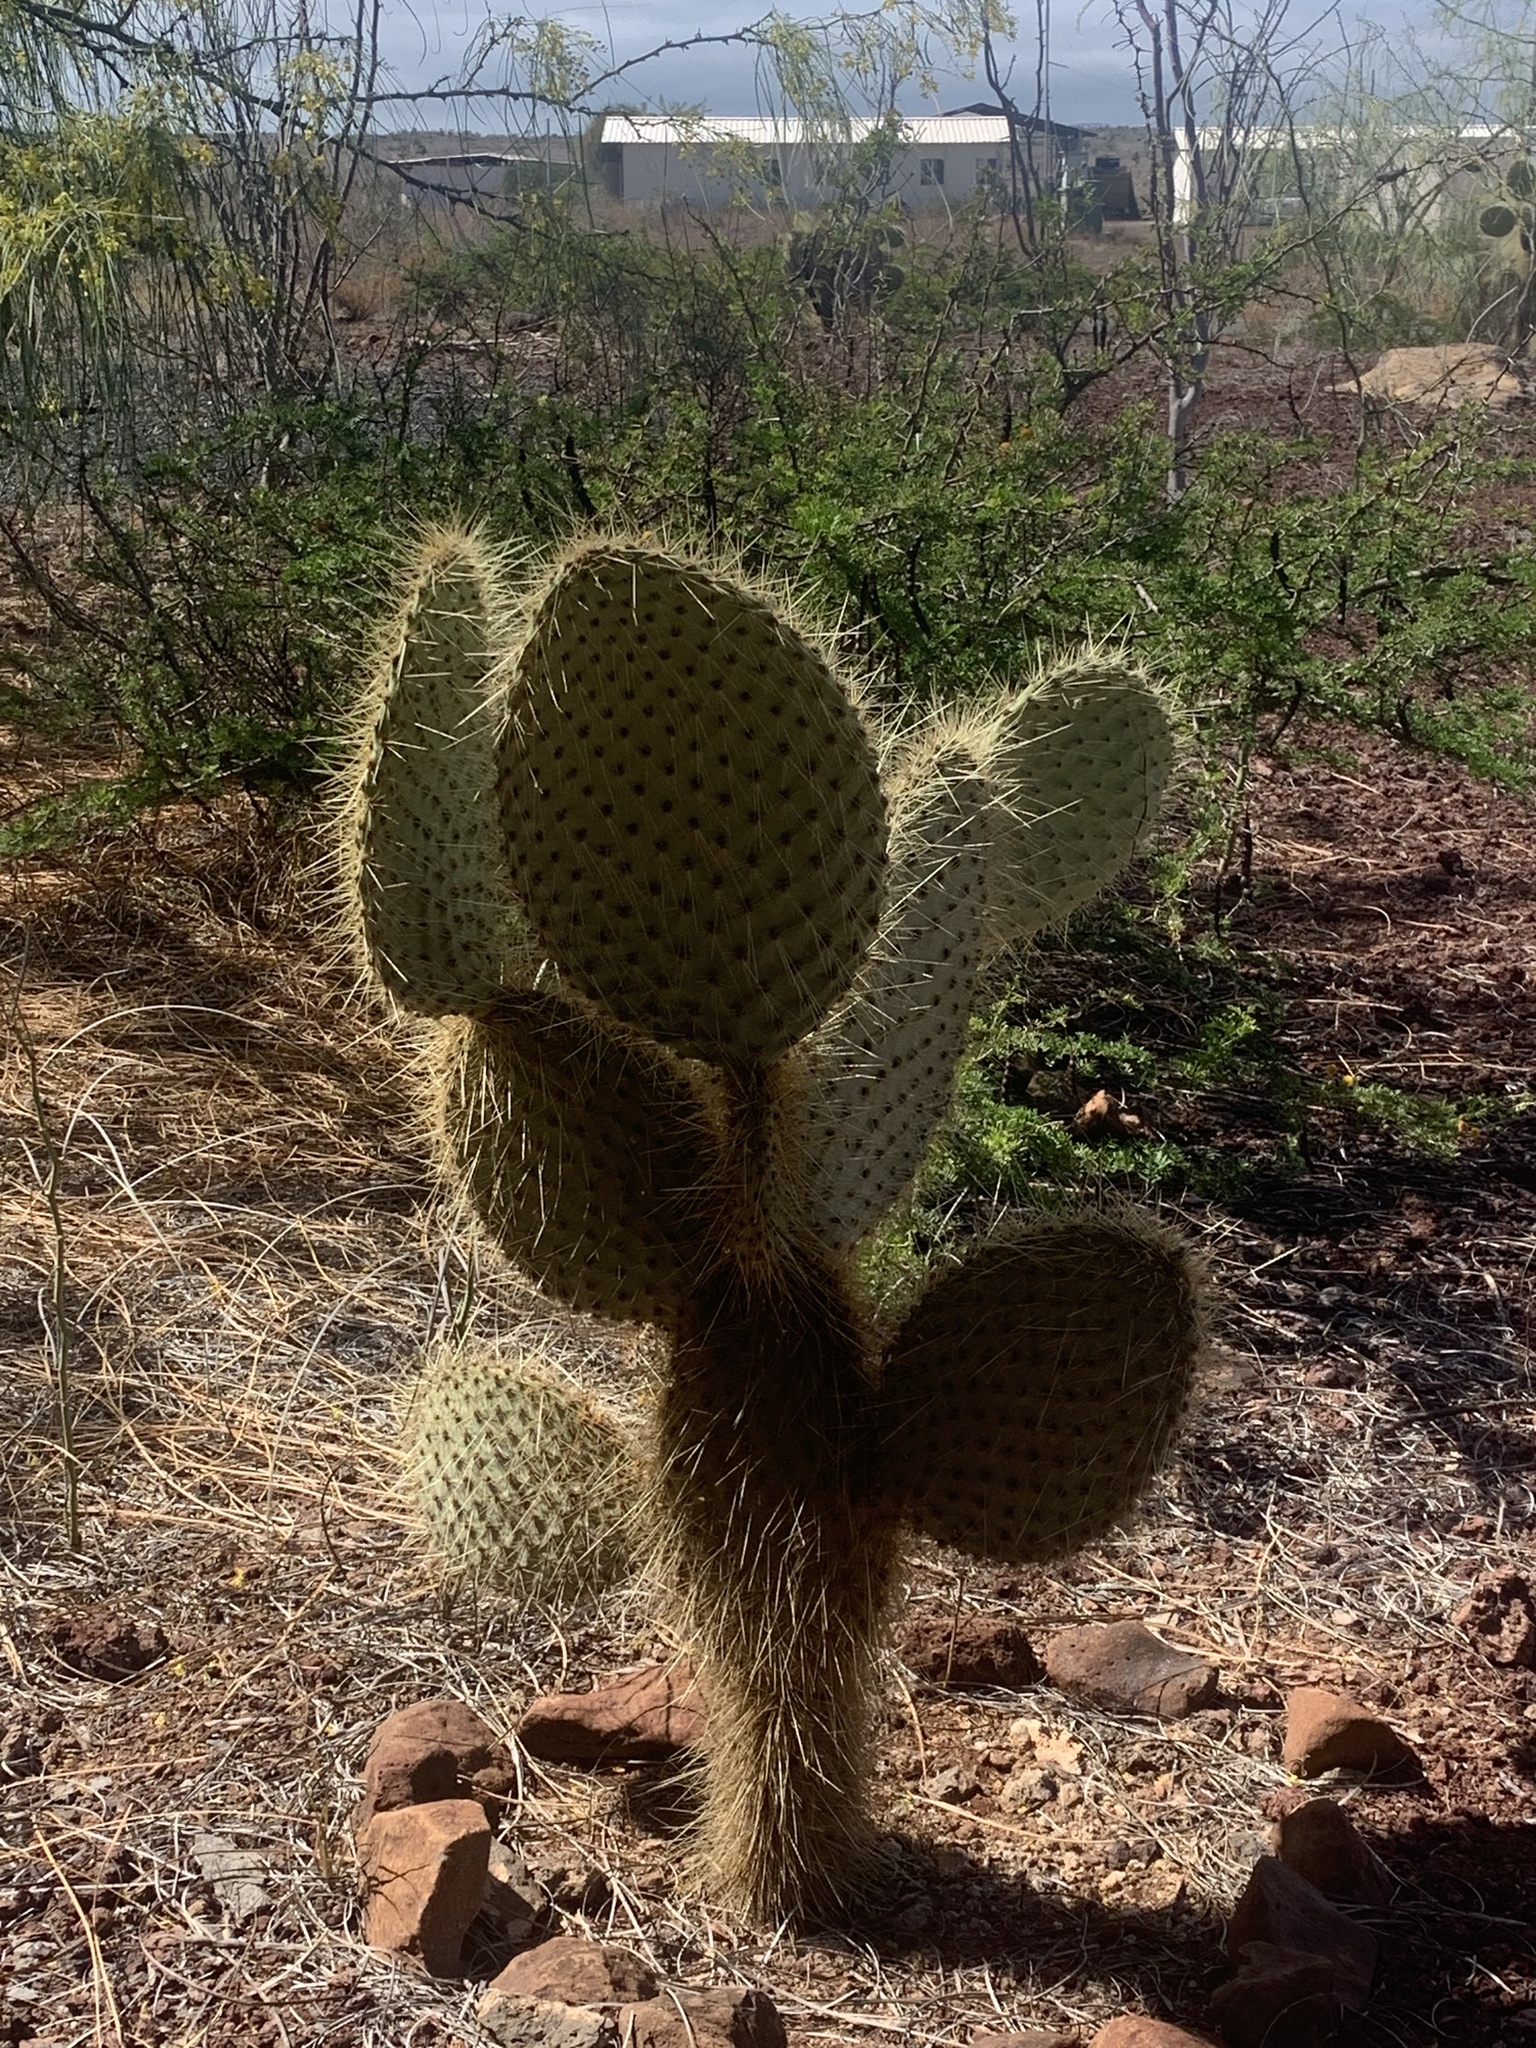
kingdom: Plantae
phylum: Tracheophyta
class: Magnoliopsida
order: Caryophyllales
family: Cactaceae
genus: Opuntia
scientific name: Opuntia galapageia
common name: Galápagos prickly pear
